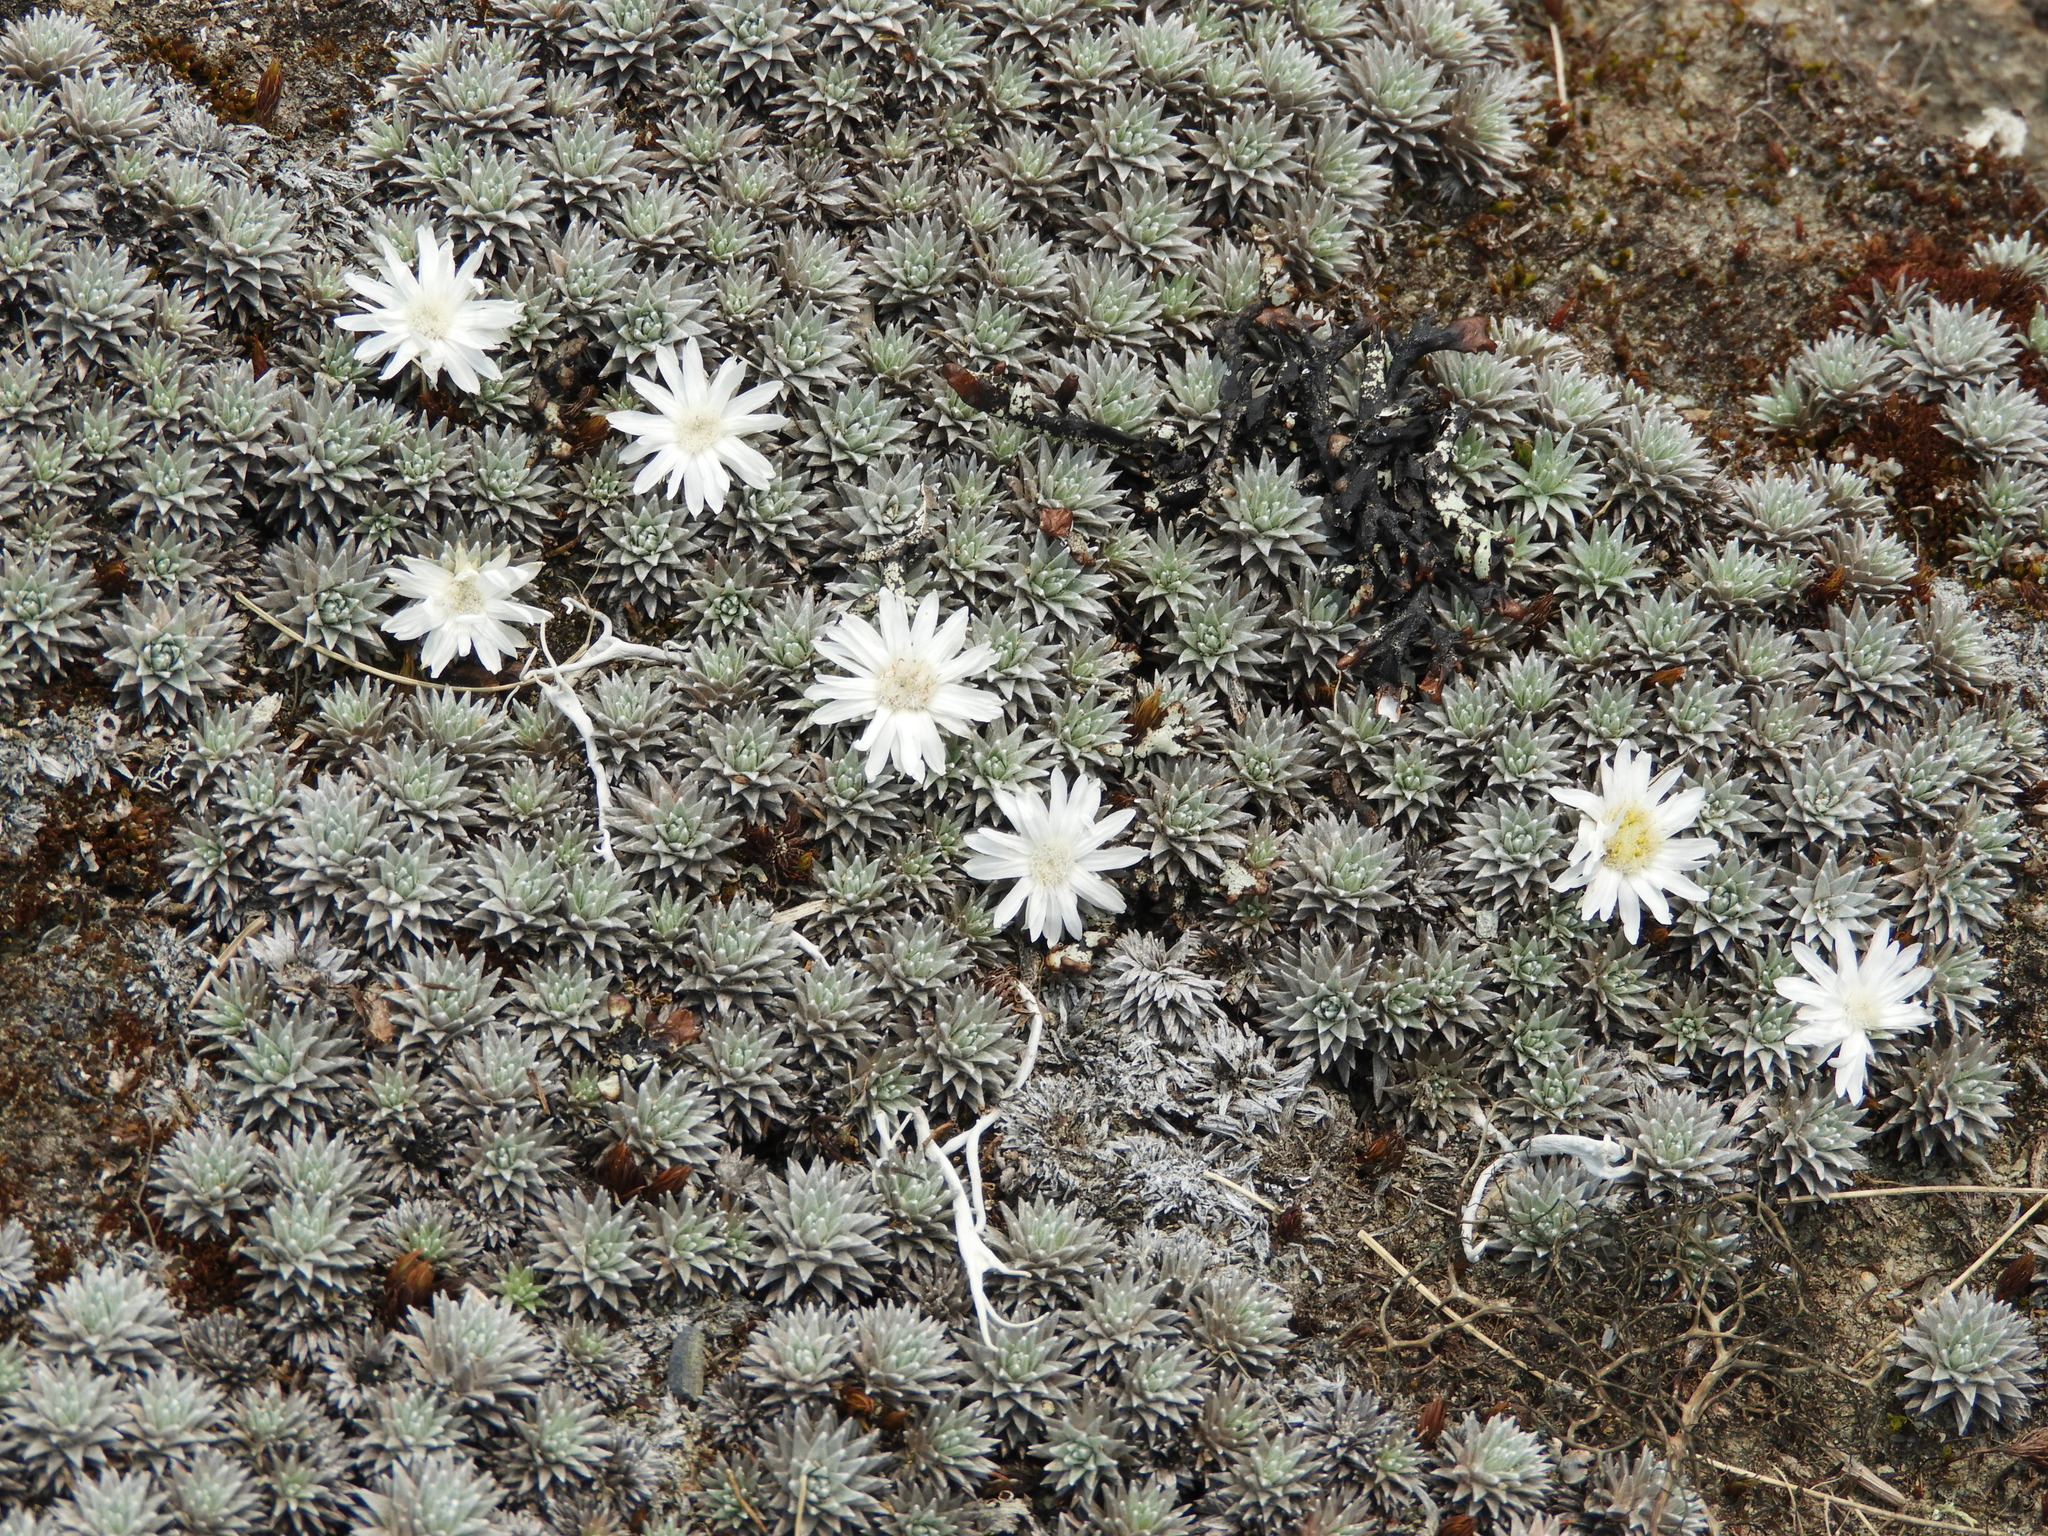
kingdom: Plantae
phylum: Tracheophyta
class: Magnoliopsida
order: Asterales
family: Asteraceae
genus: Raoulia
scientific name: Raoulia grandiflora
